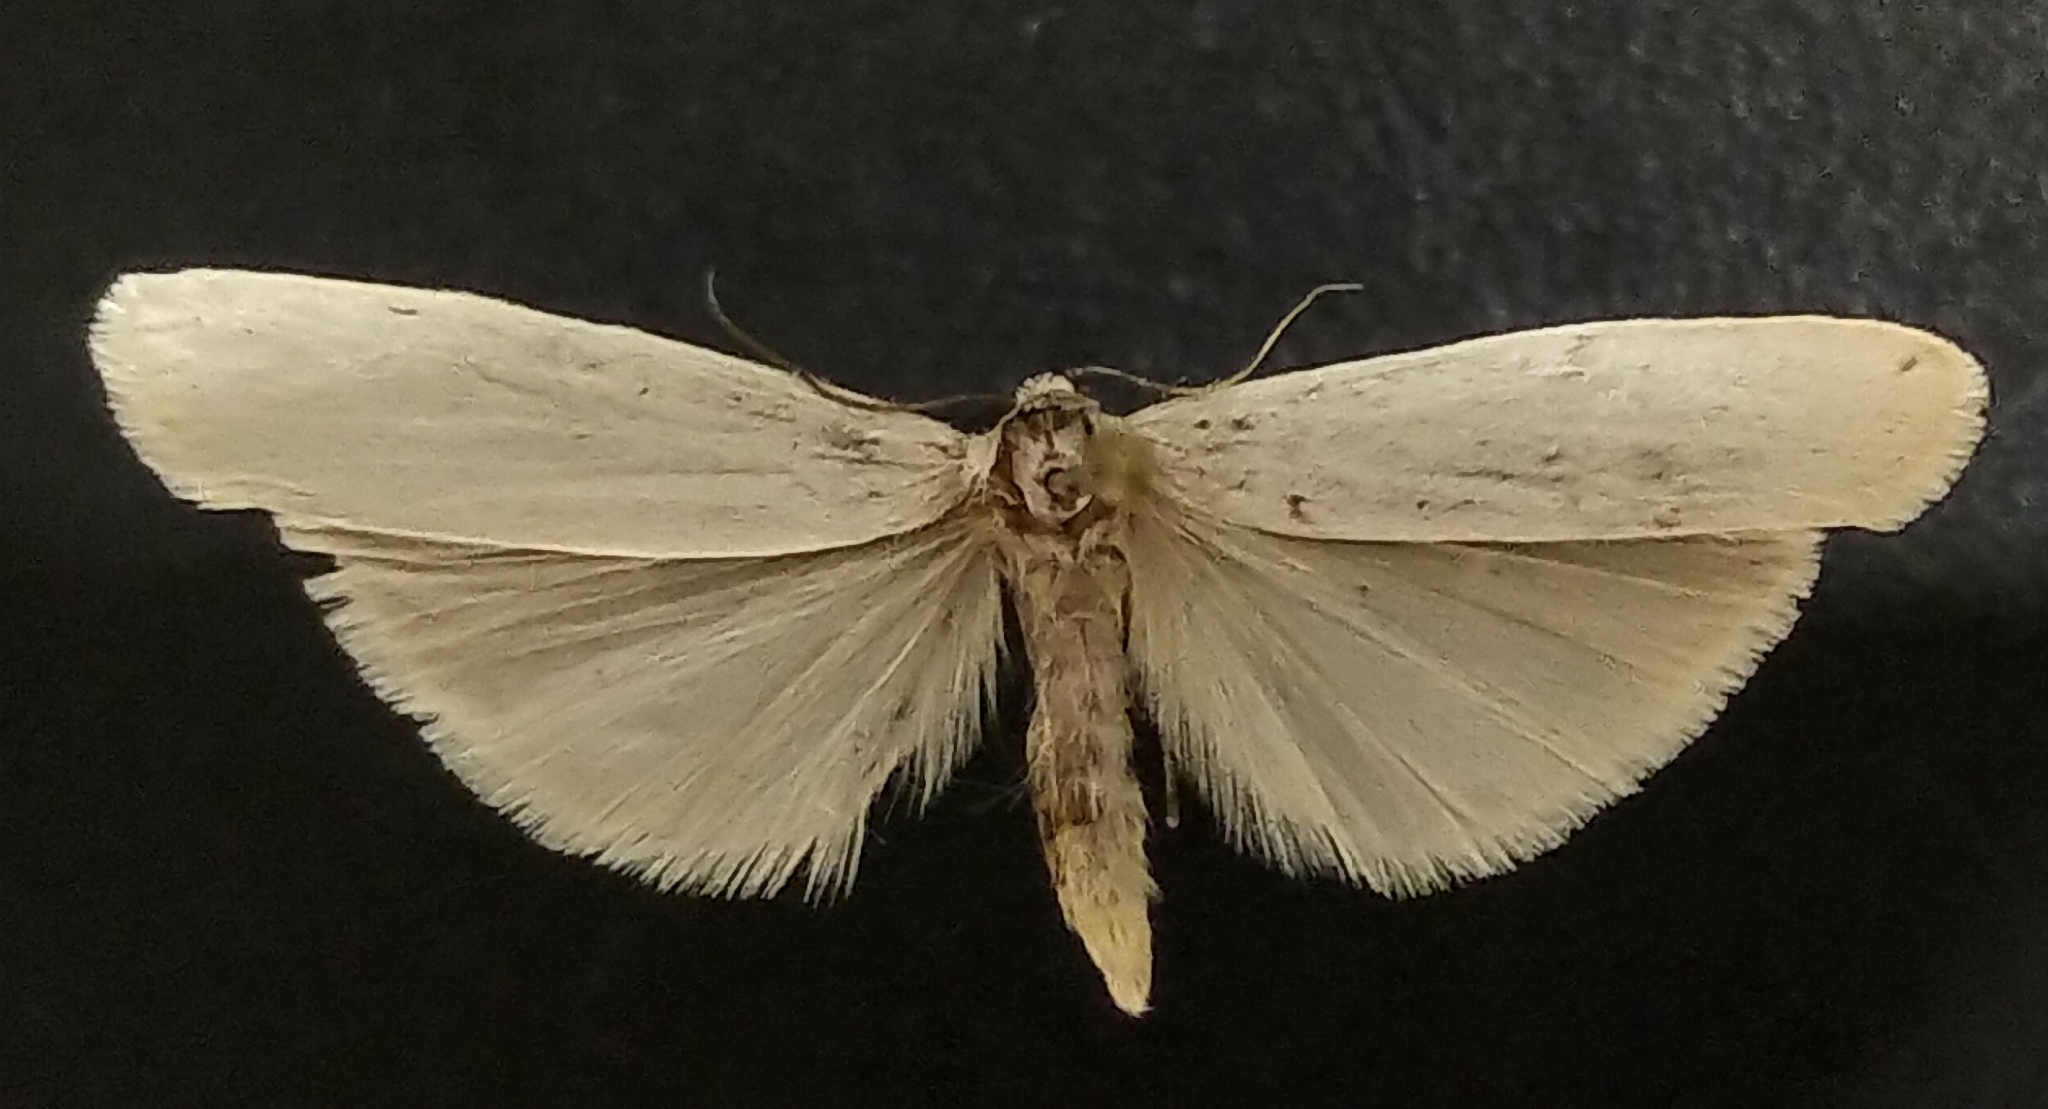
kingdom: Animalia
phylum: Arthropoda
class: Insecta
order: Lepidoptera
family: Erebidae
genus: Crambidia
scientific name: Crambidia casta
